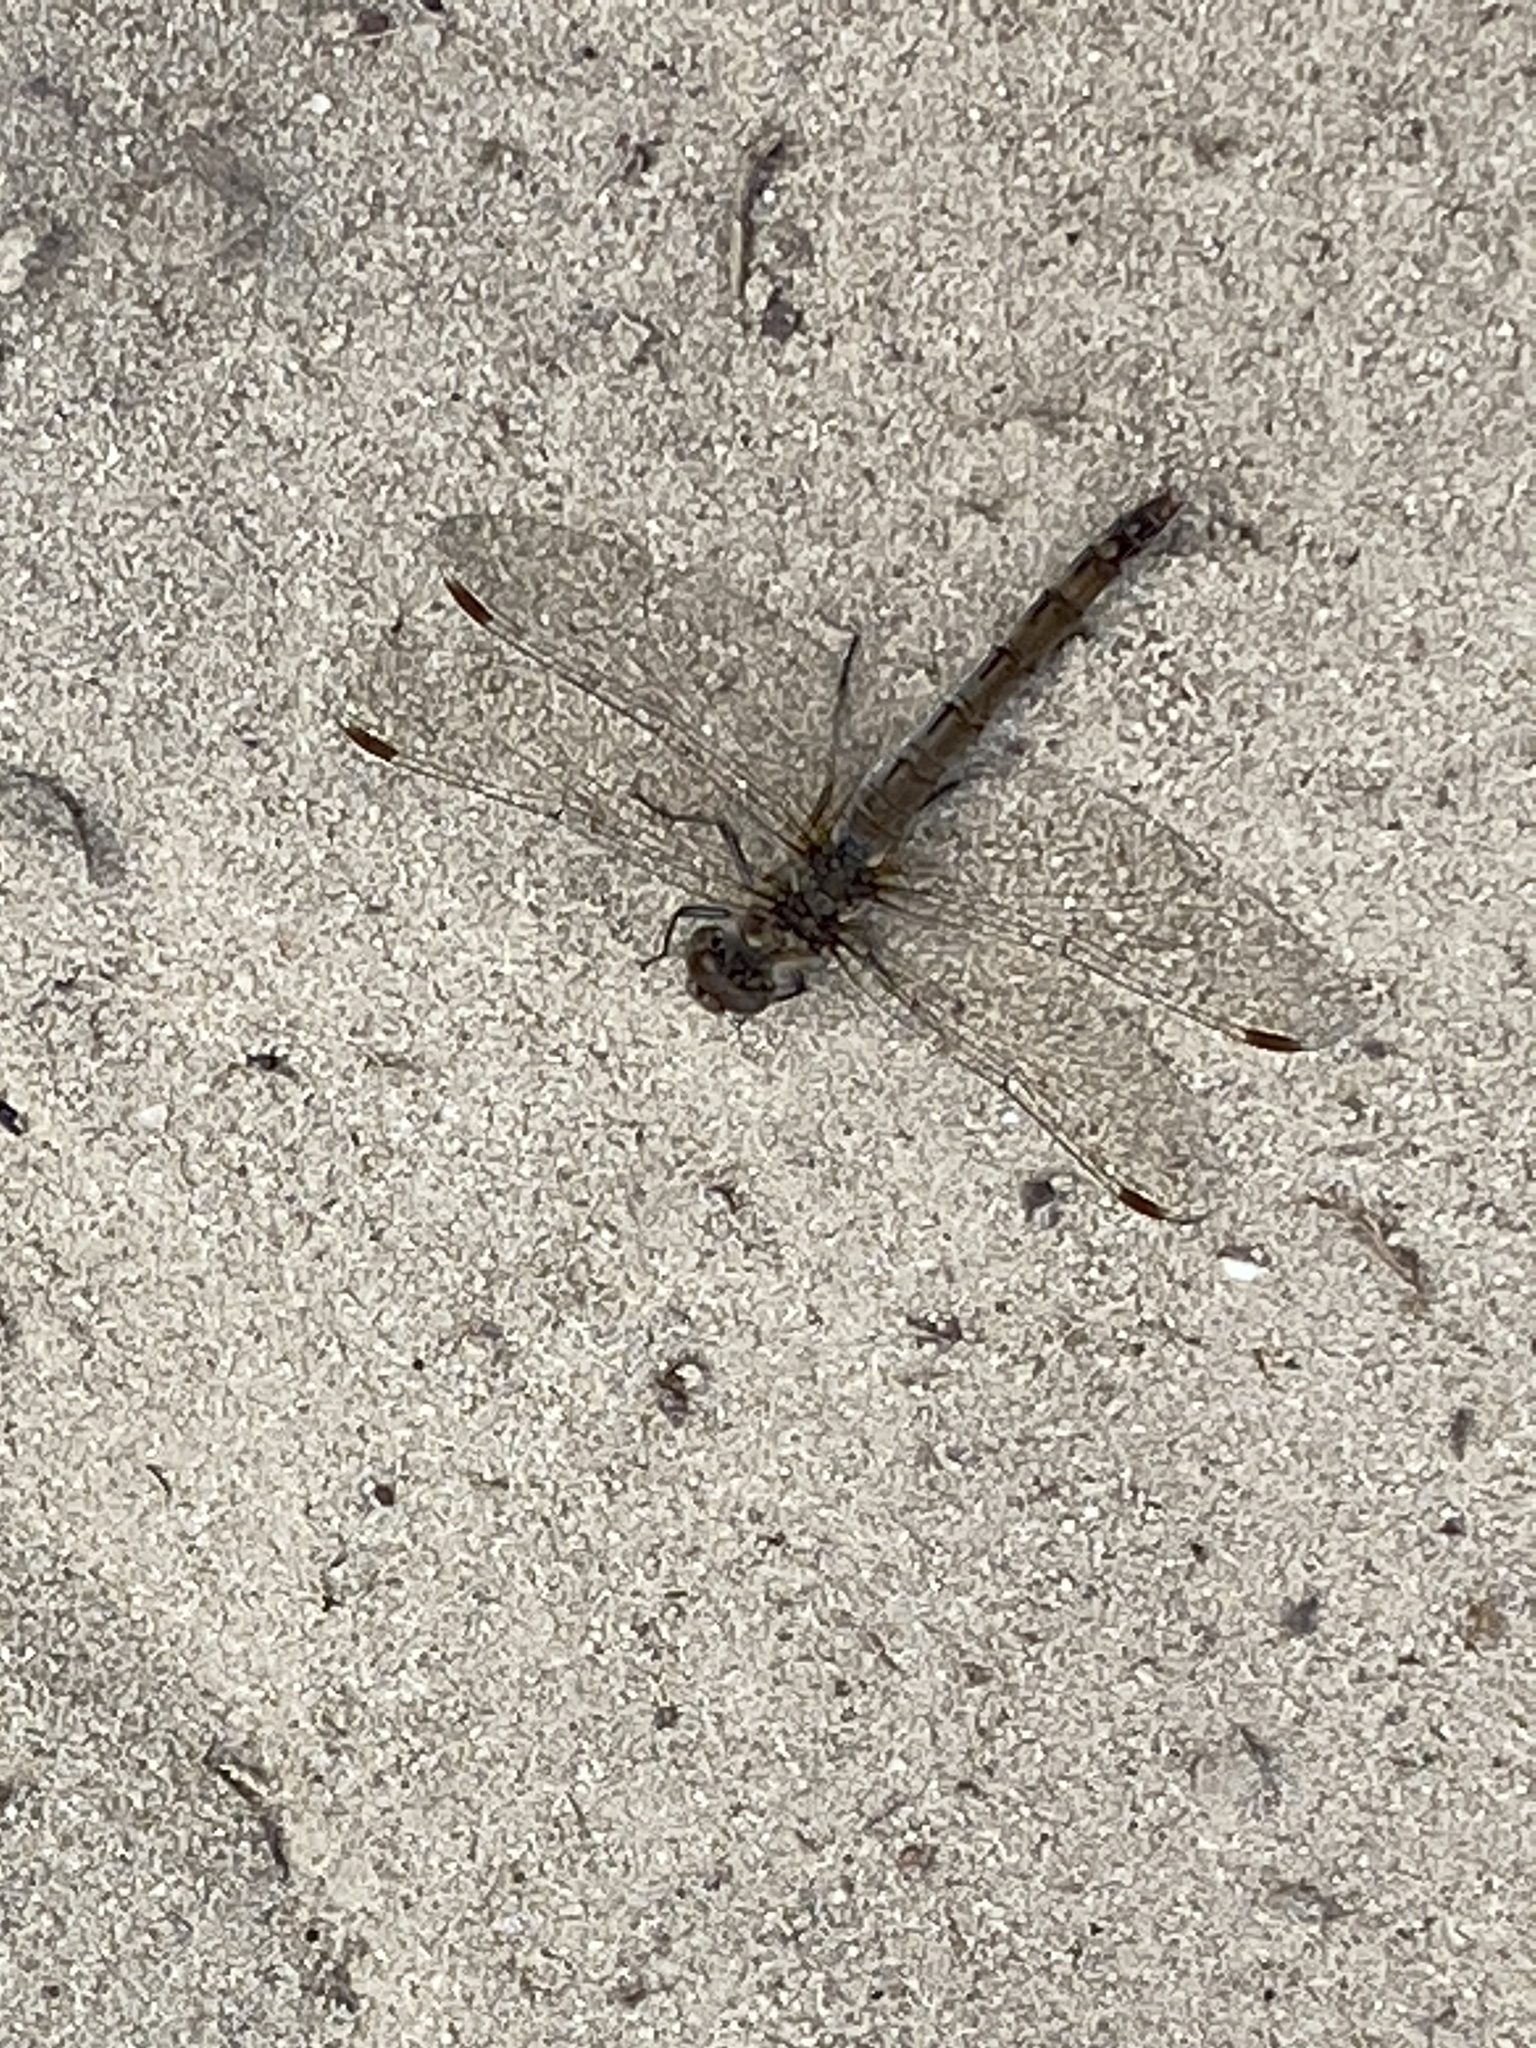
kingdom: Animalia
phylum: Arthropoda
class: Insecta
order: Odonata
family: Libellulidae
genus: Sympetrum
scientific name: Sympetrum
